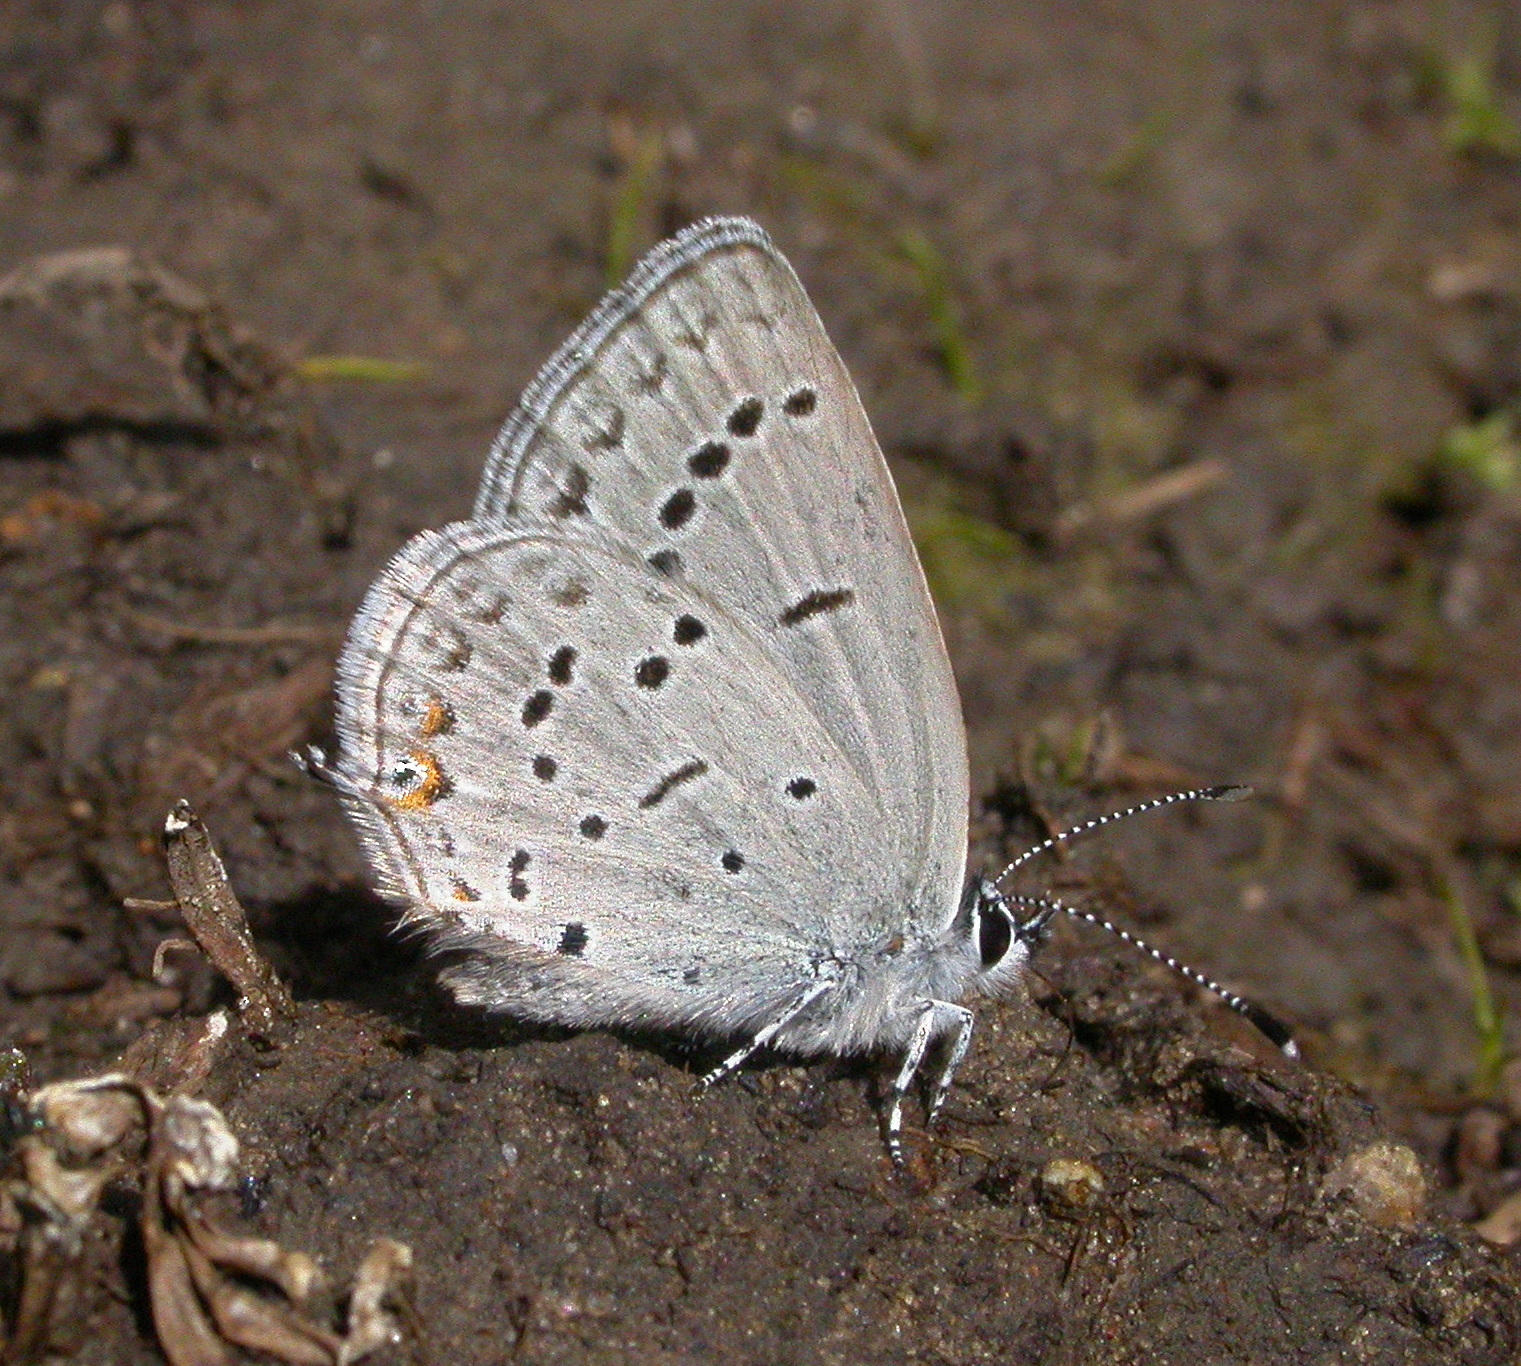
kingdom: Animalia
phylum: Arthropoda
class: Insecta
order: Lepidoptera
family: Lycaenidae
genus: Elkalyce
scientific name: Elkalyce amyntula
